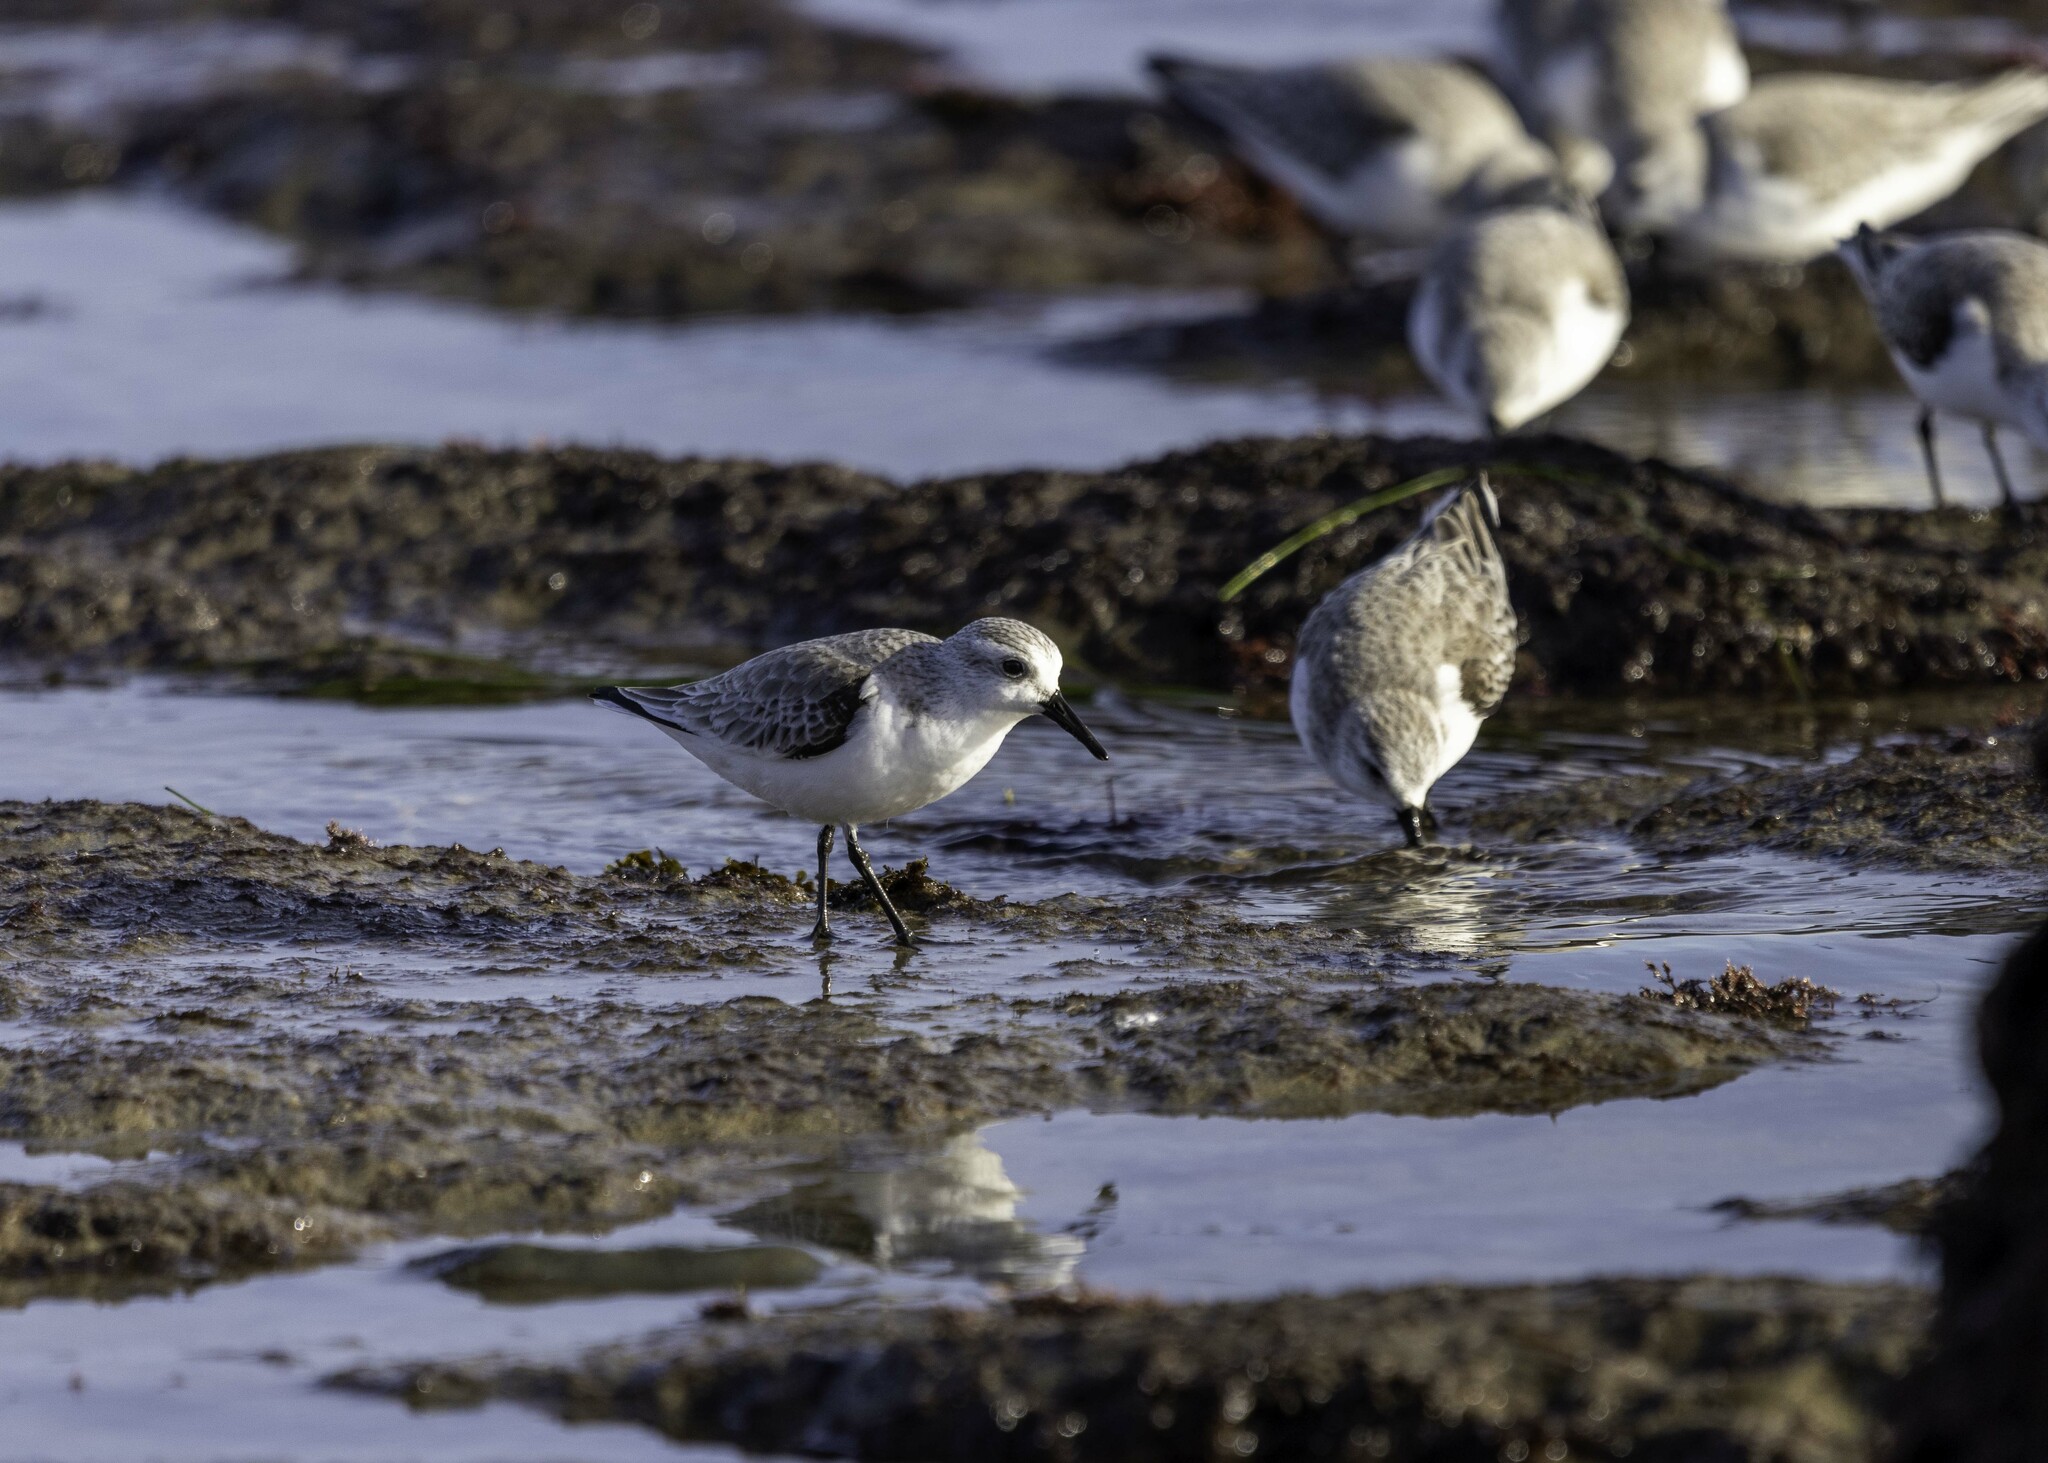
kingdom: Animalia
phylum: Chordata
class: Aves
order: Charadriiformes
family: Scolopacidae
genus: Calidris
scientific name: Calidris alba
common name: Sanderling
